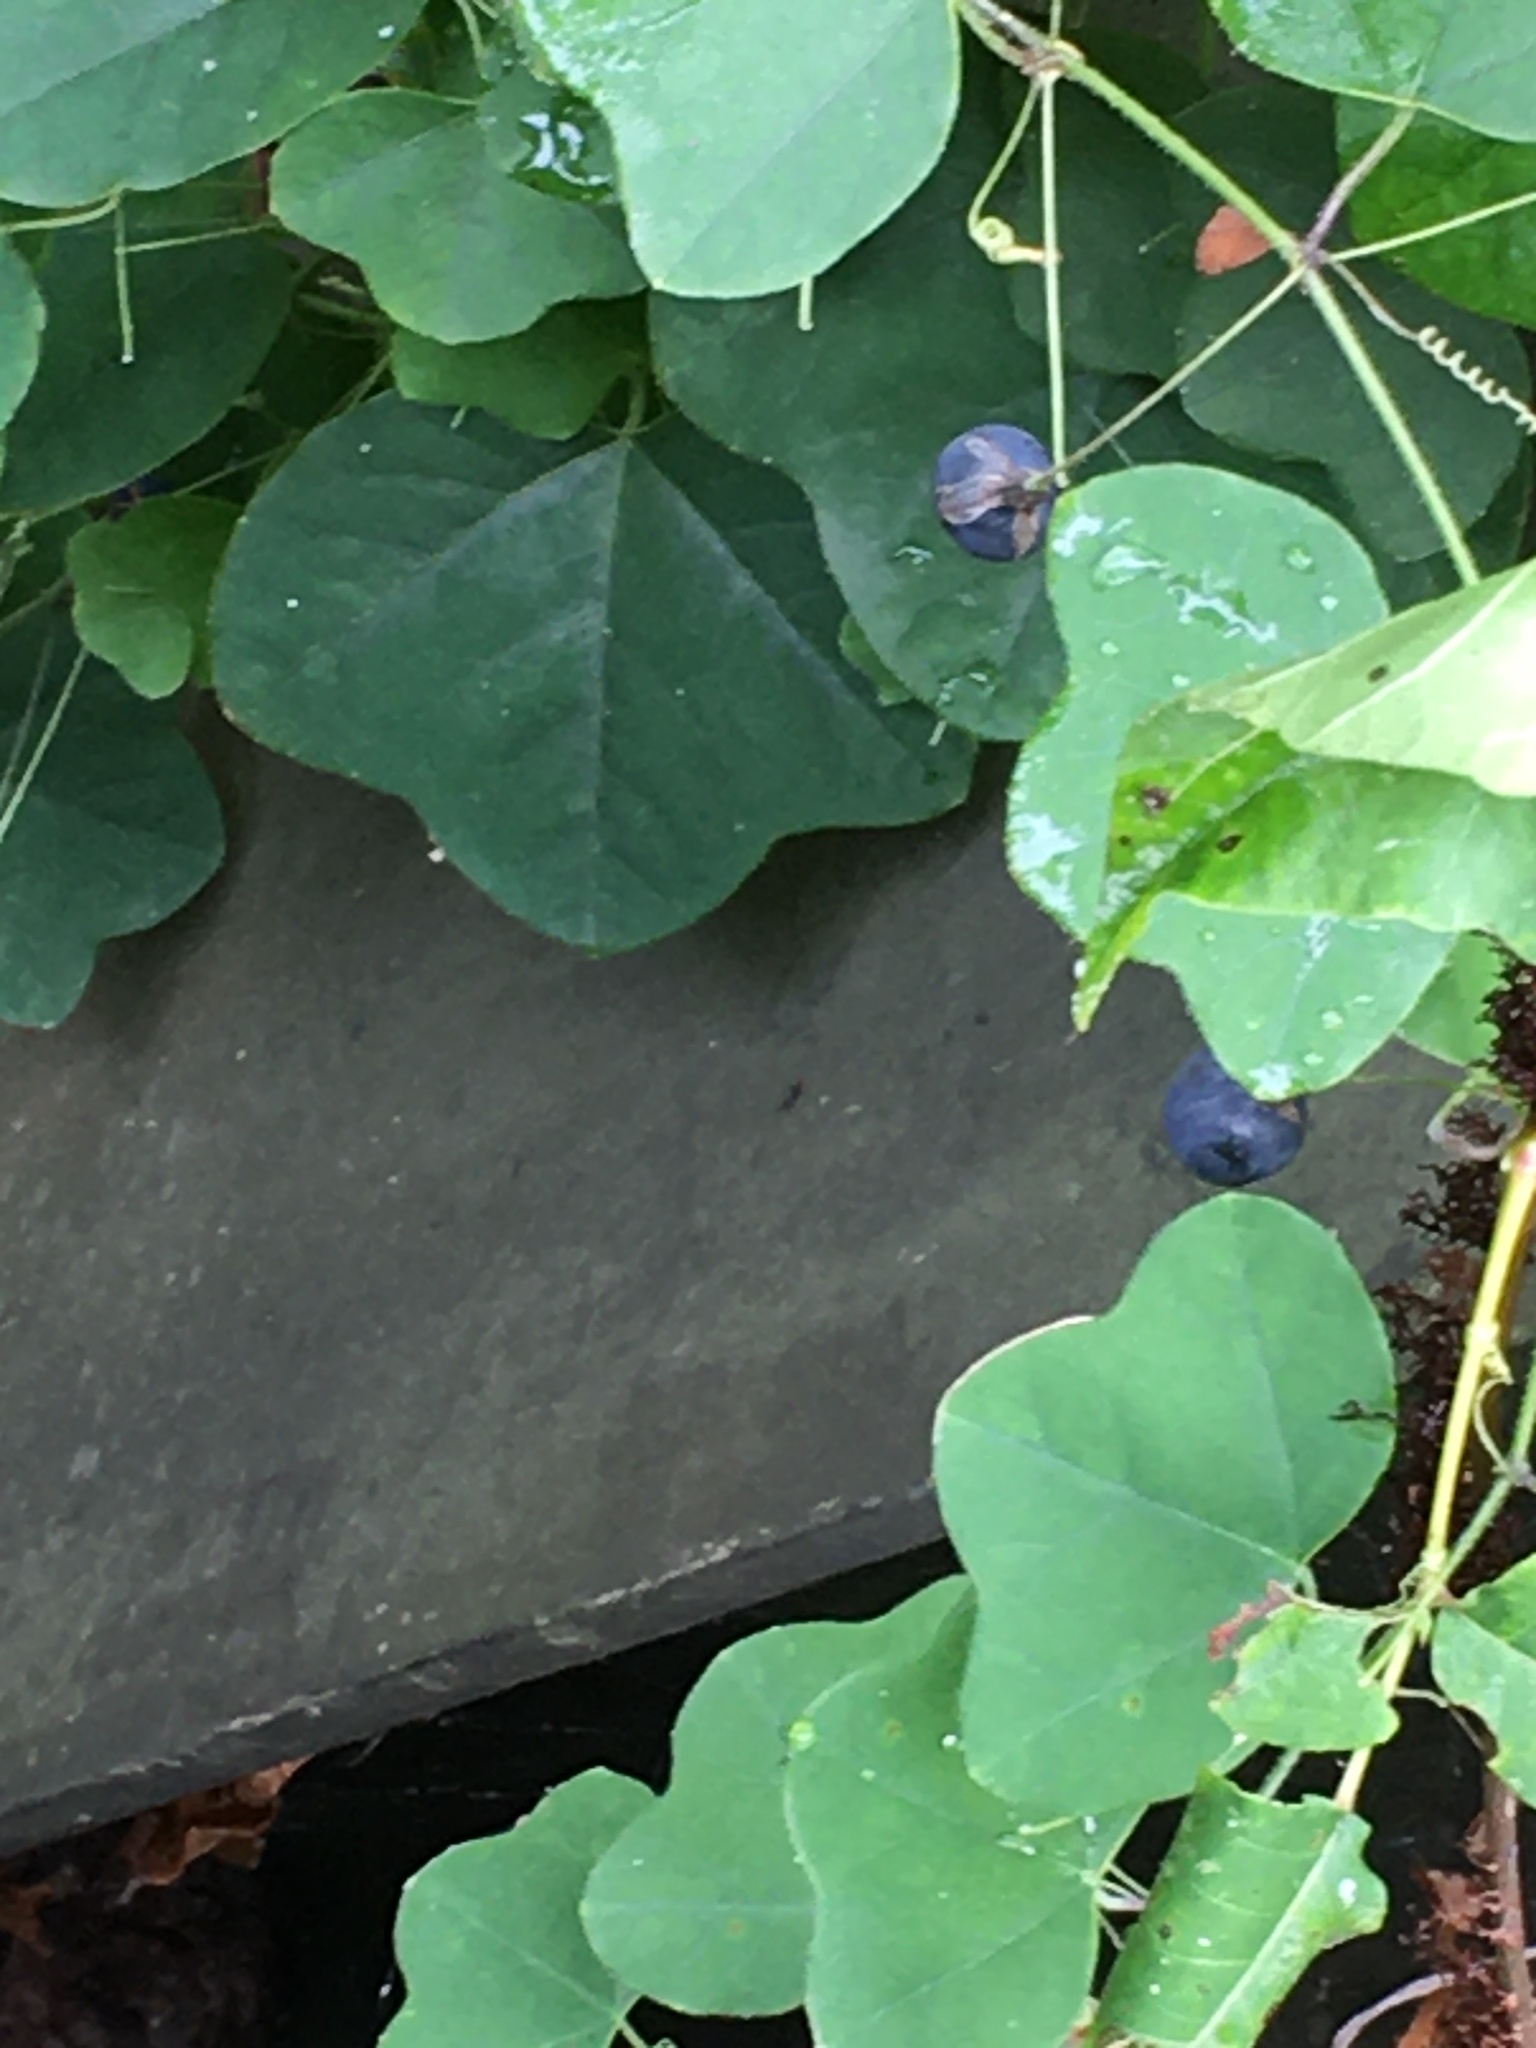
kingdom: Plantae
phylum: Tracheophyta
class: Magnoliopsida
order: Malpighiales
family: Passifloraceae
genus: Passiflora
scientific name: Passiflora lutea
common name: Yellow passionflower
